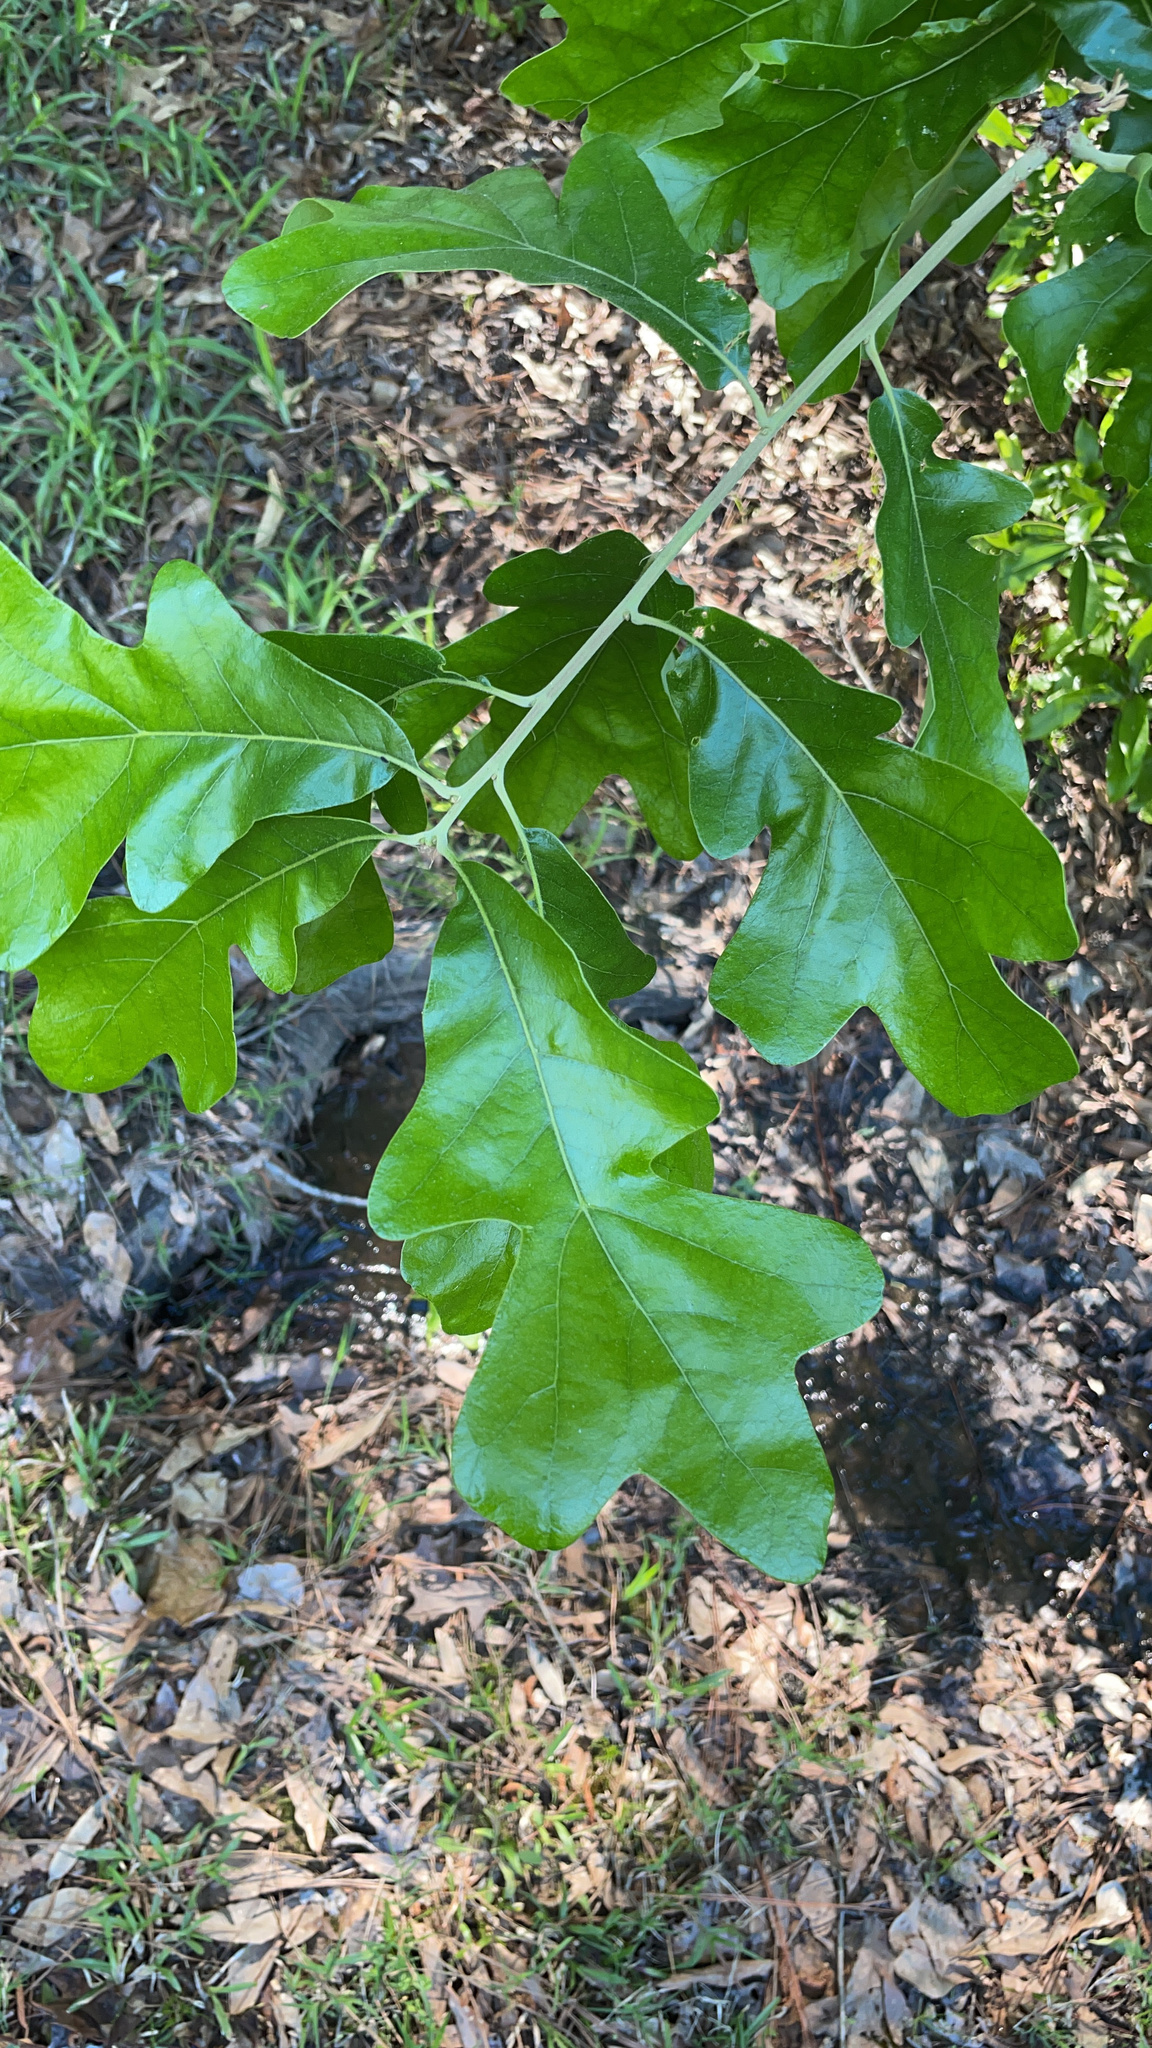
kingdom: Plantae
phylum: Tracheophyta
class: Magnoliopsida
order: Fagales
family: Fagaceae
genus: Quercus
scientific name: Quercus stellata
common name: Post oak
